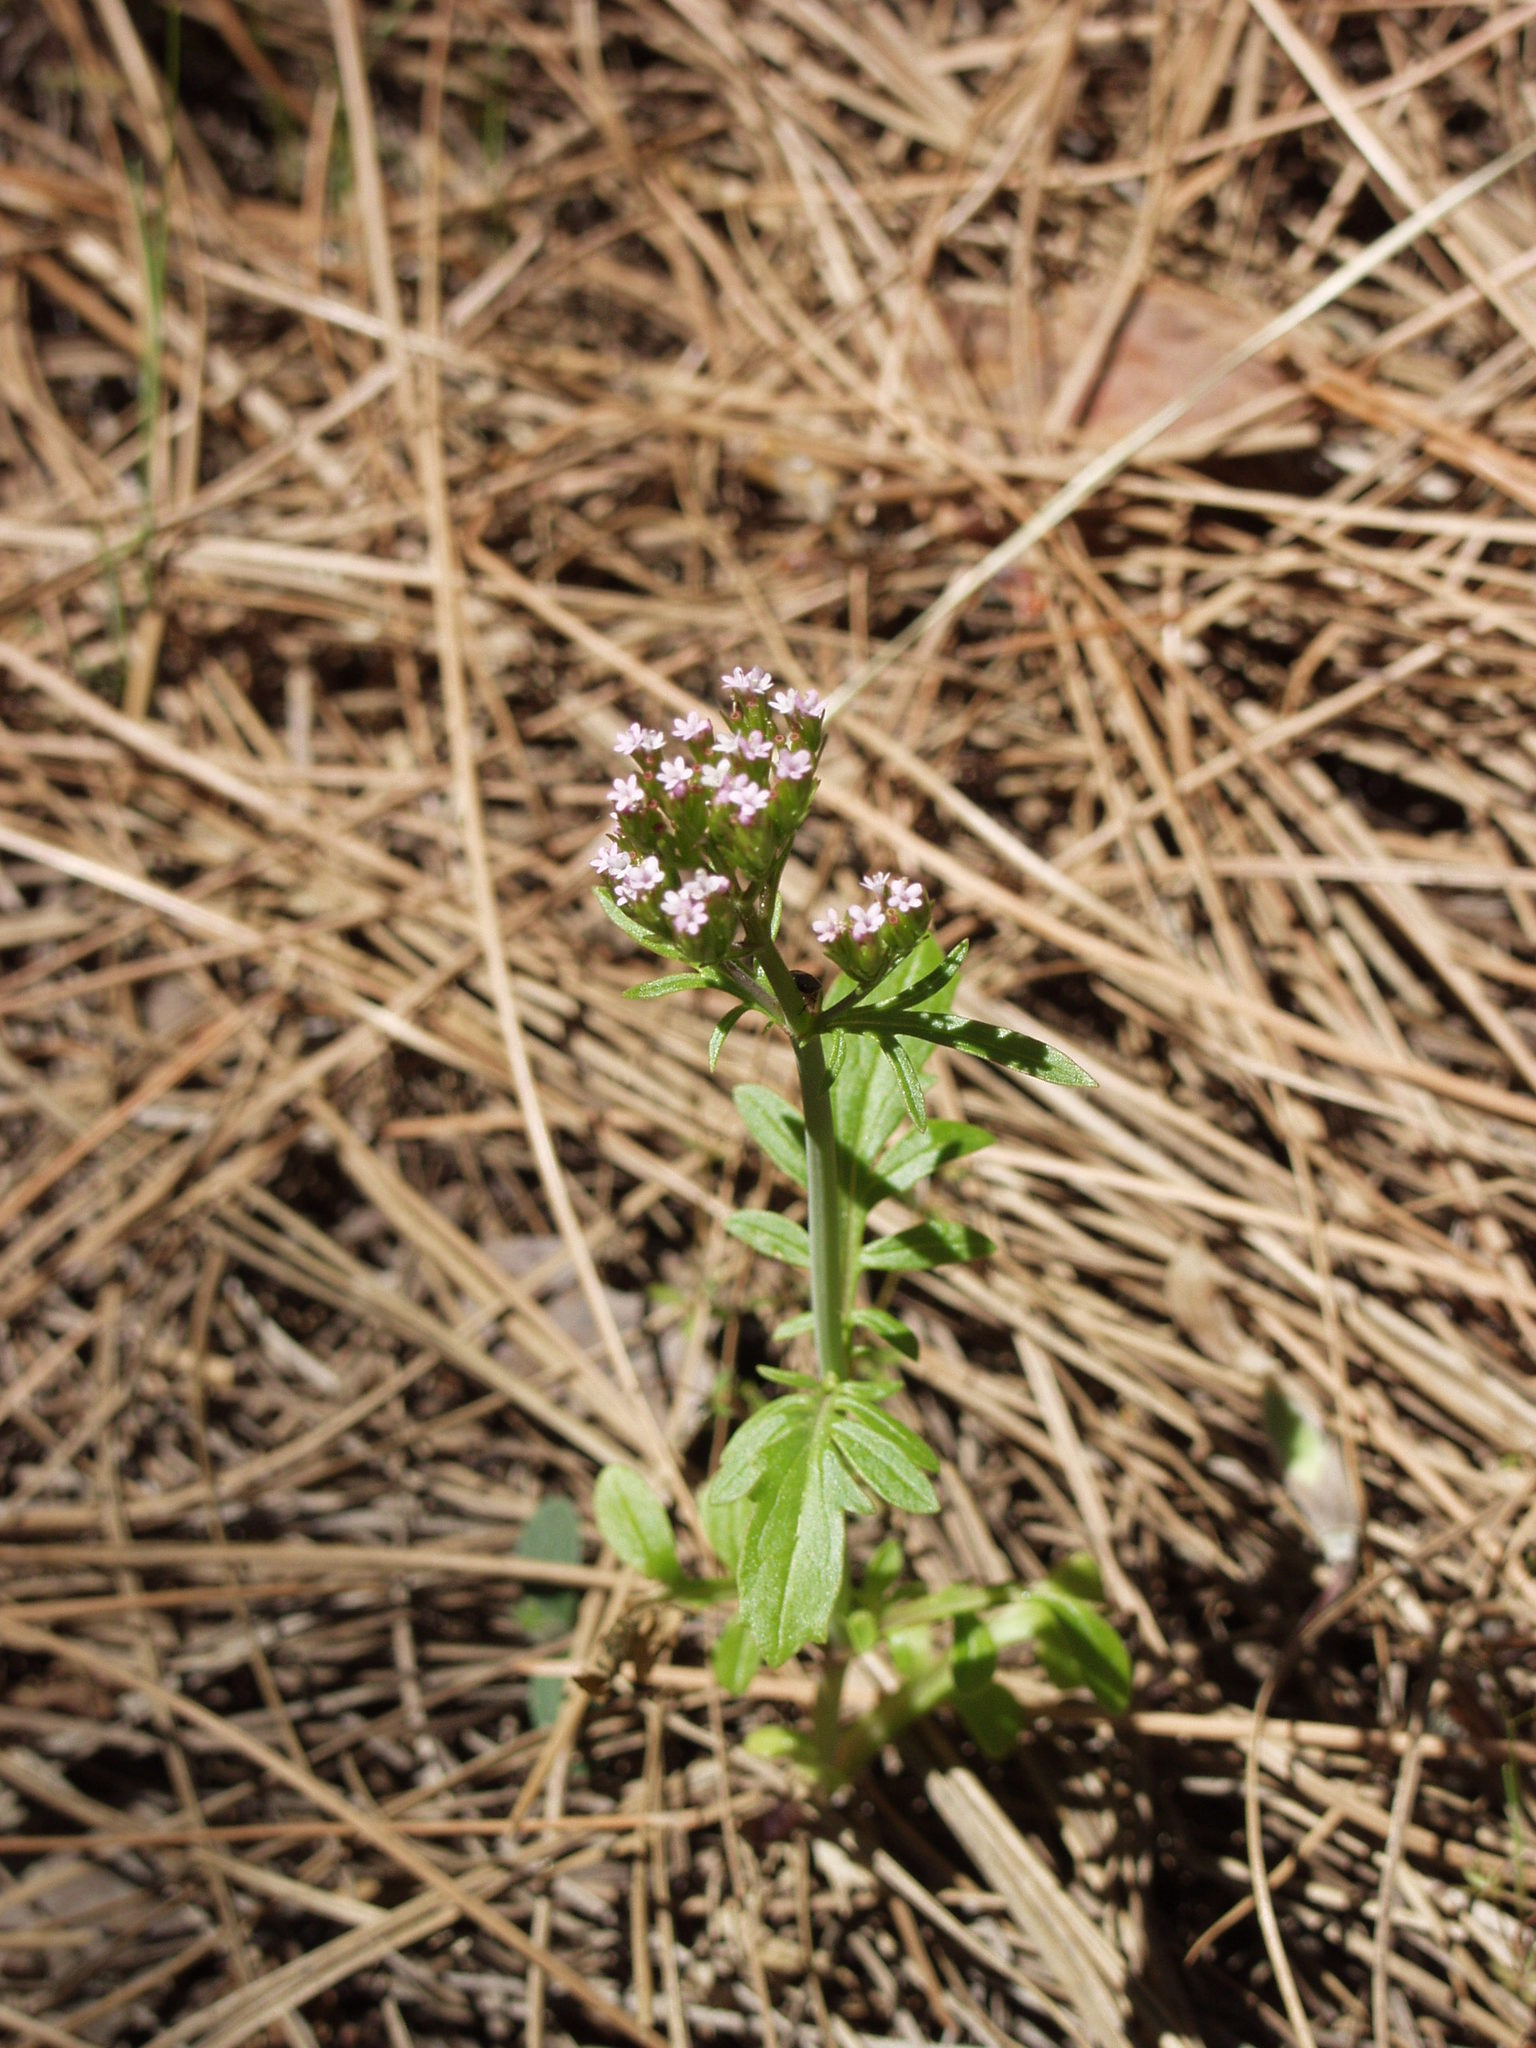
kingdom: Plantae
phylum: Tracheophyta
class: Magnoliopsida
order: Dipsacales
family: Caprifoliaceae
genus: Centranthus
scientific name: Centranthus calcitrapae
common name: Annual valerian
